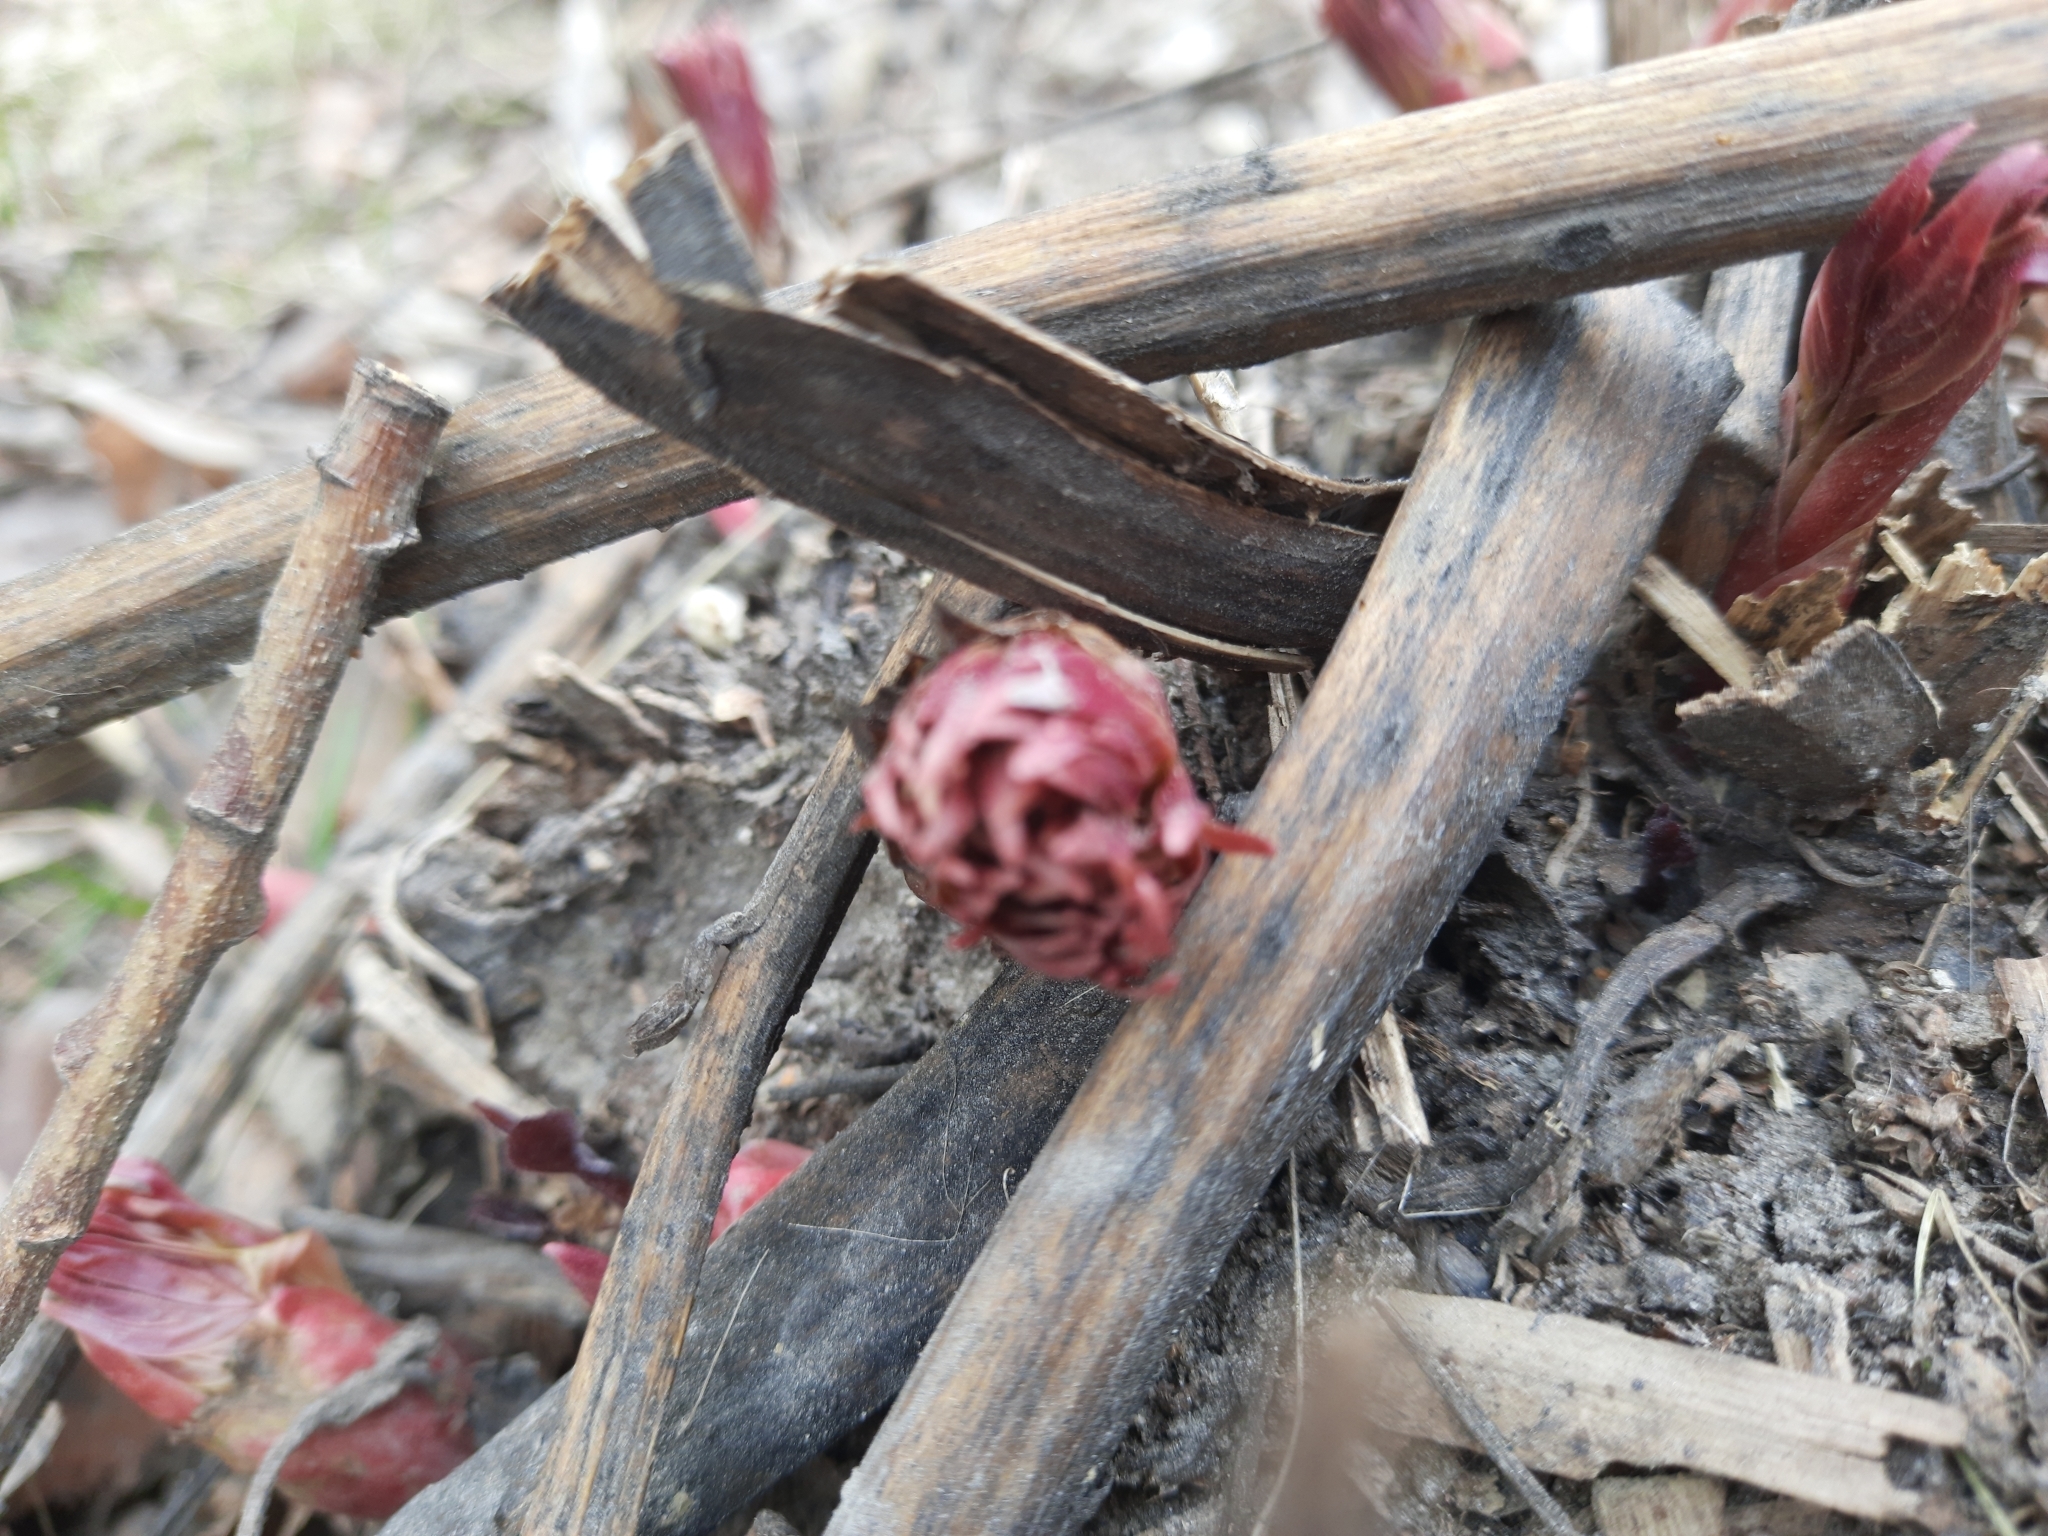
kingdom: Plantae
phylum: Tracheophyta
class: Magnoliopsida
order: Saxifragales
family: Paeoniaceae
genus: Paeonia
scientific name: Paeonia anomala
